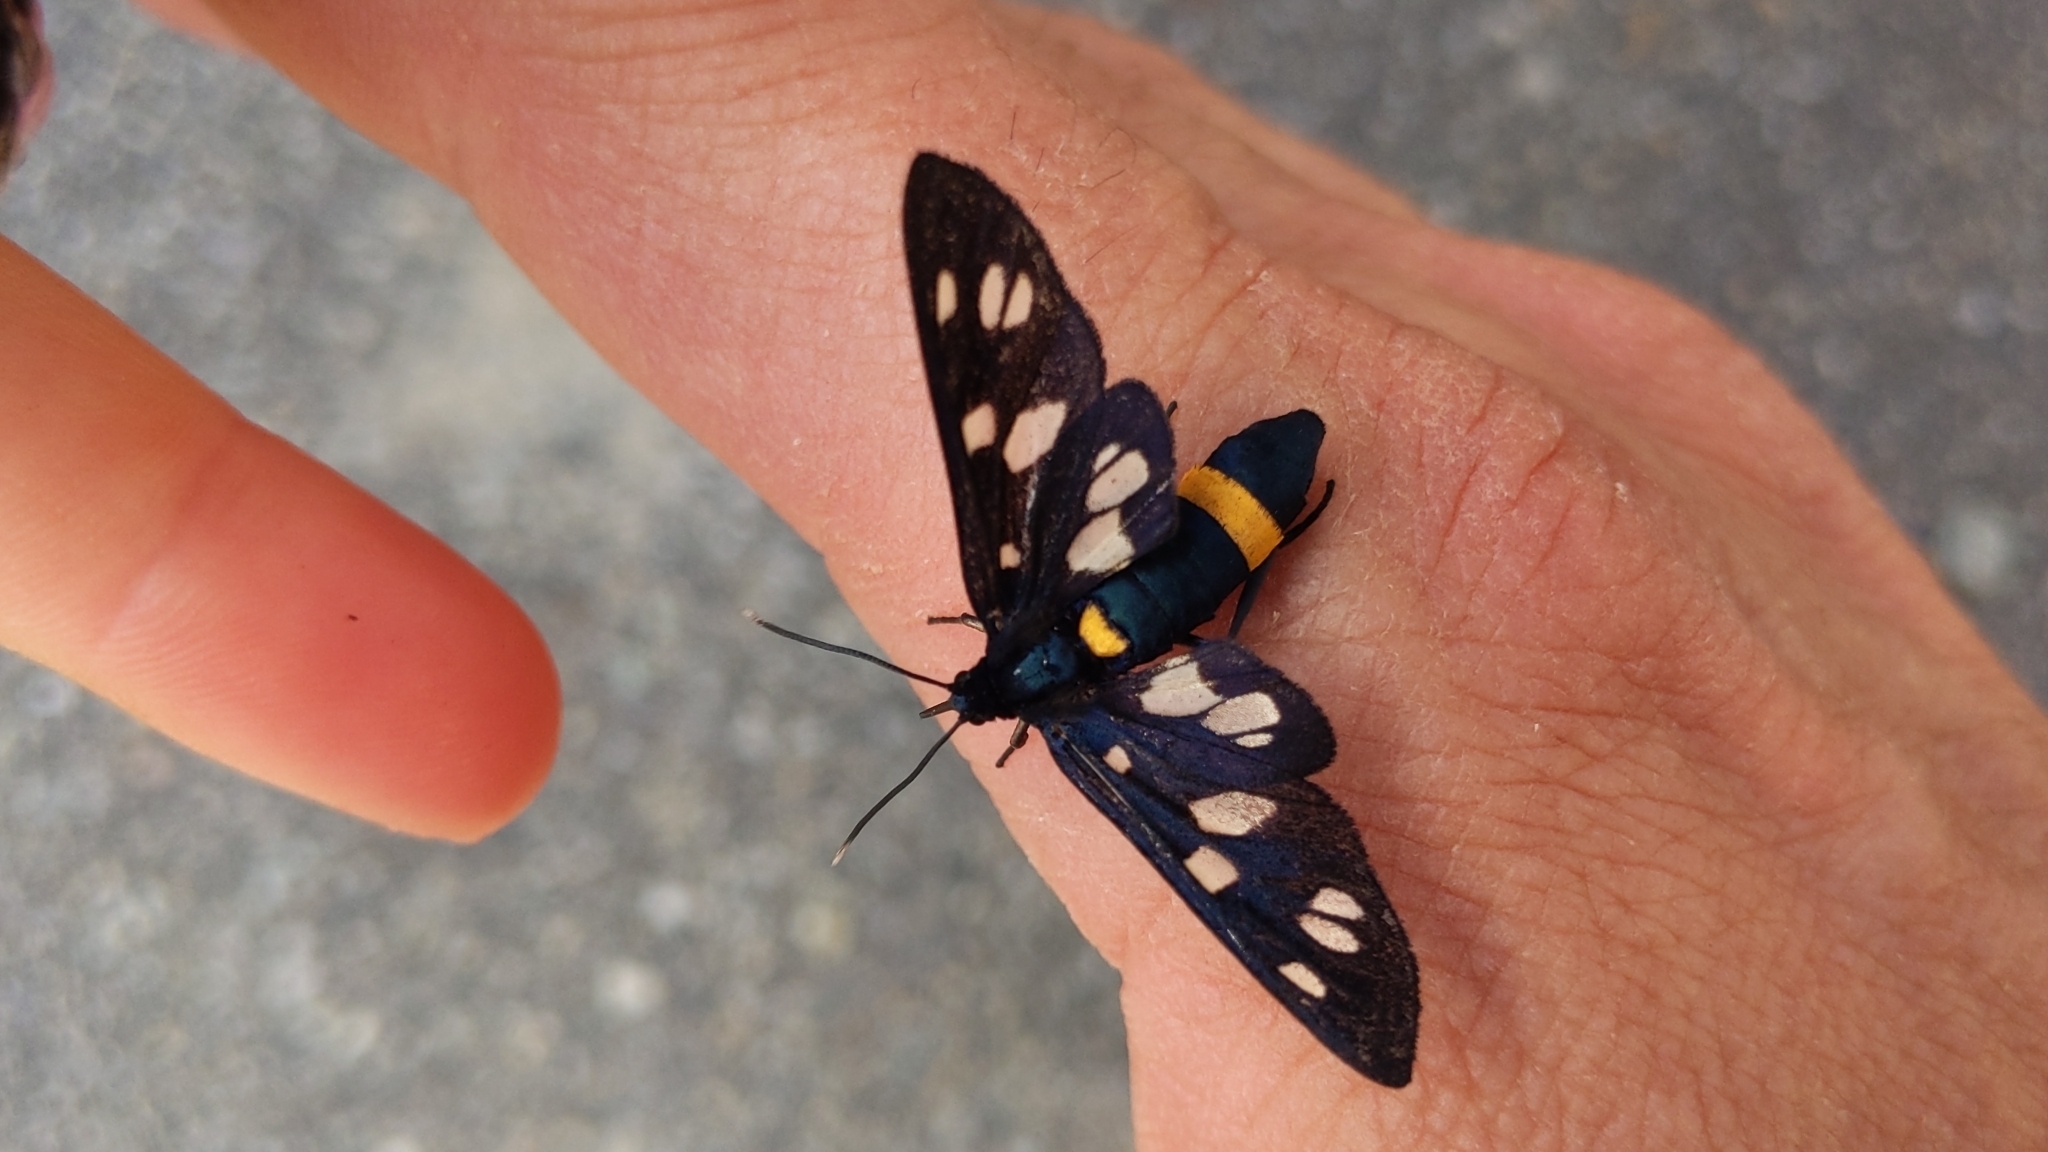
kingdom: Animalia
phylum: Arthropoda
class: Insecta
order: Lepidoptera
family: Erebidae
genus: Amata
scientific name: Amata phegea
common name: Nine-spotted
